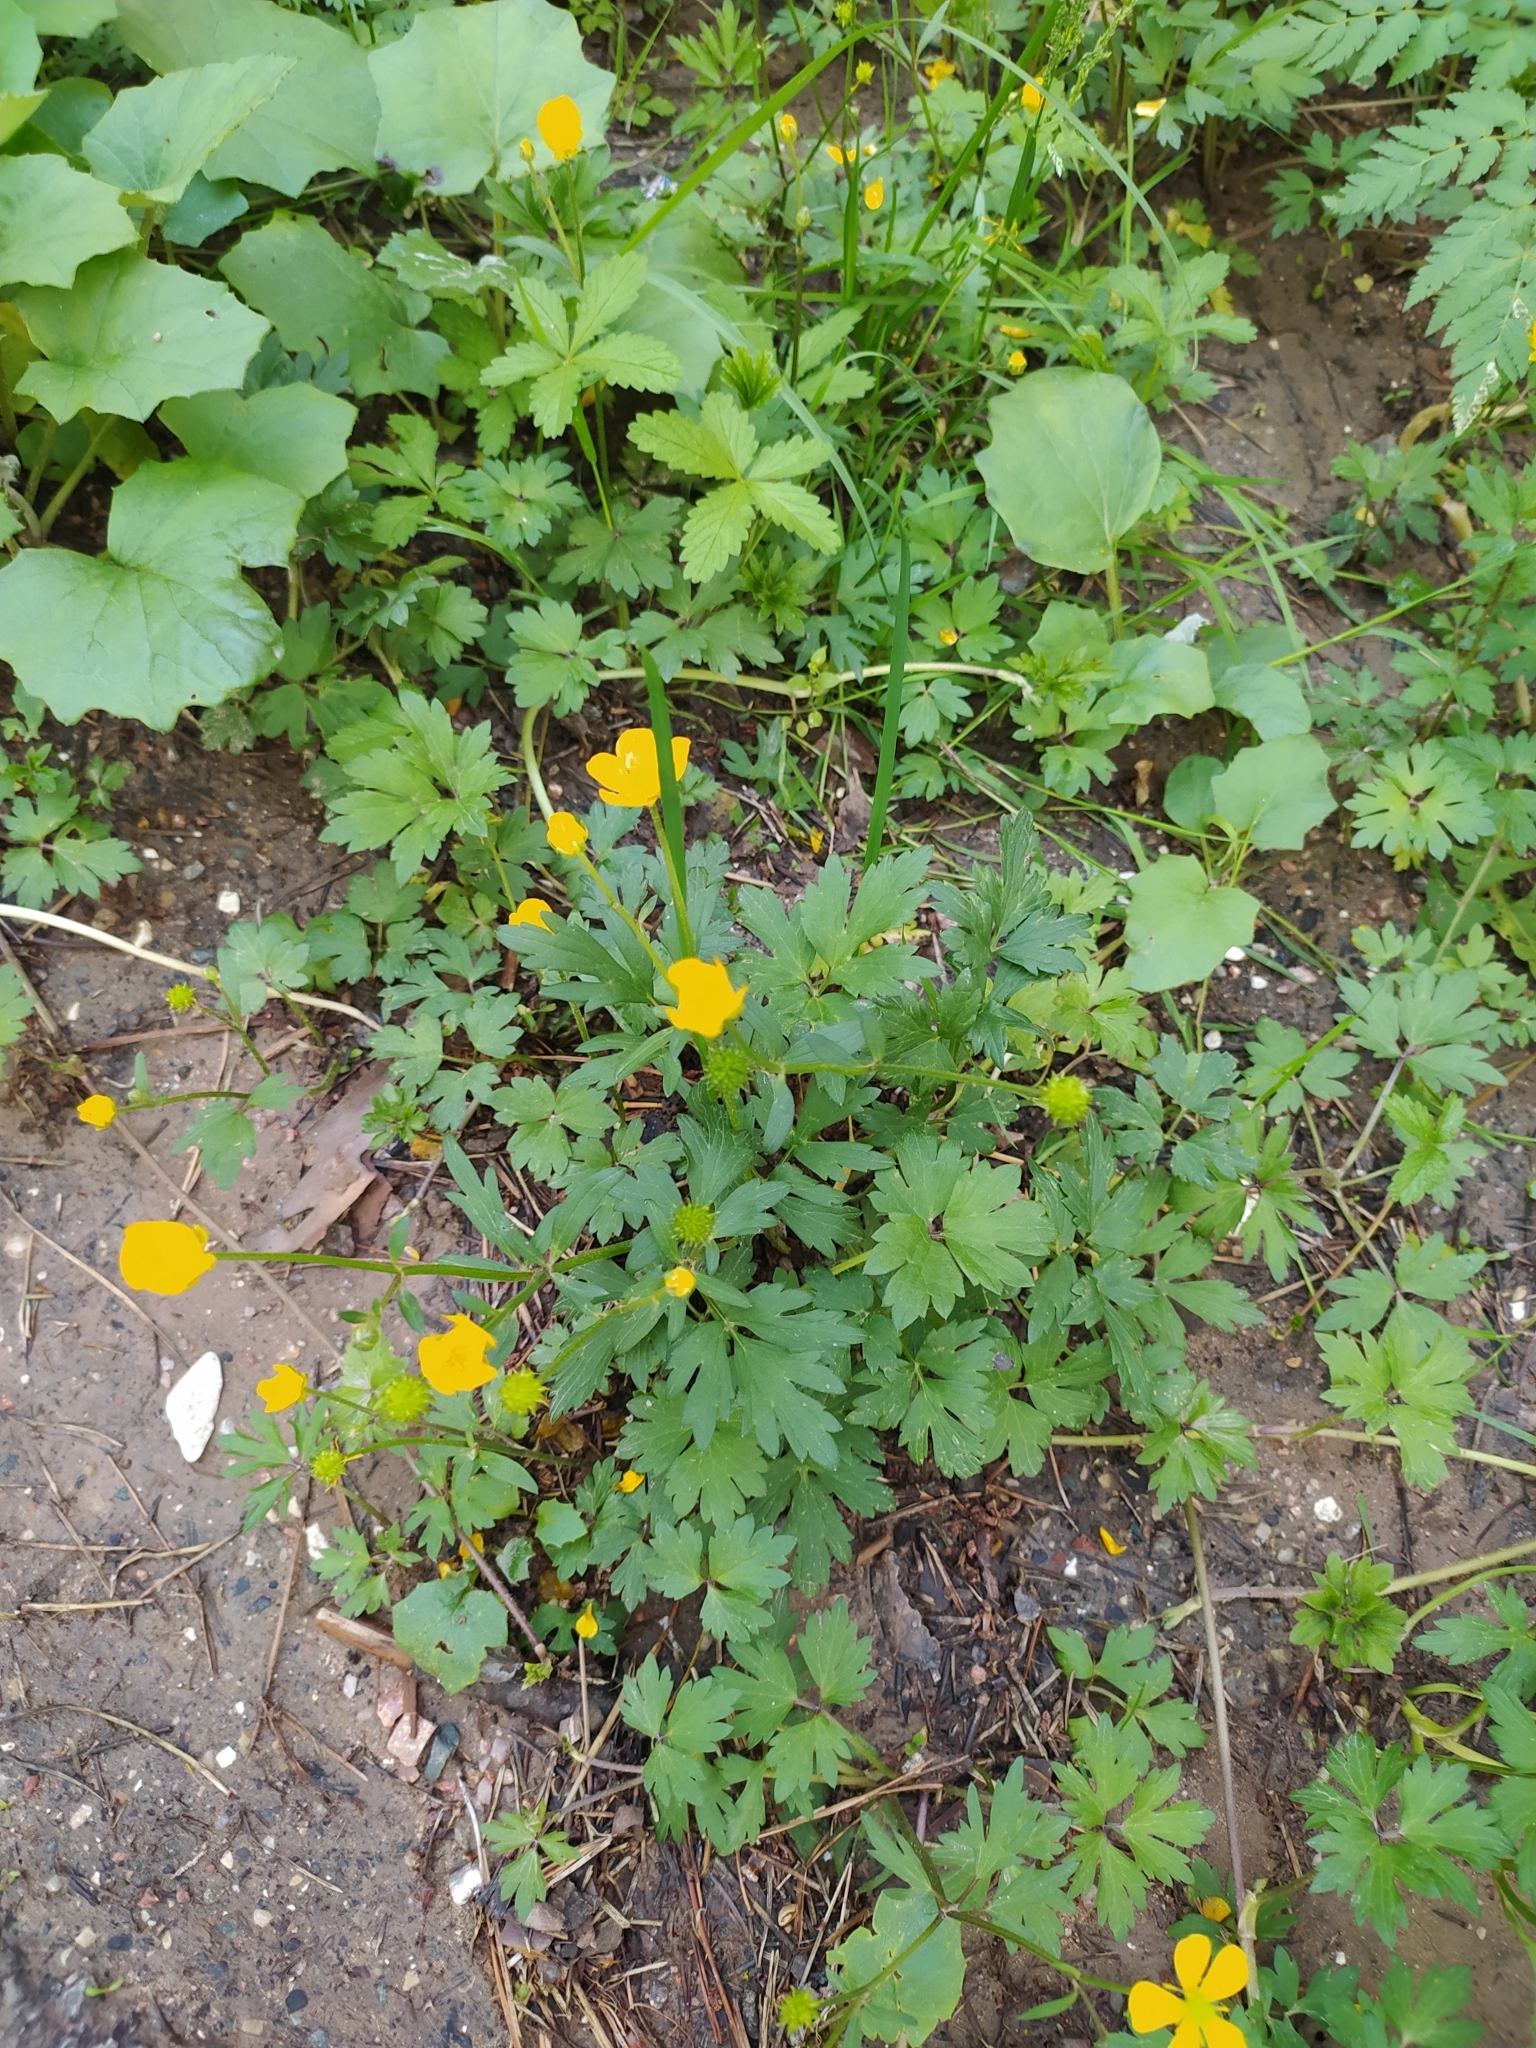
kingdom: Plantae
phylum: Tracheophyta
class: Magnoliopsida
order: Ranunculales
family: Ranunculaceae
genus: Ranunculus
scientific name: Ranunculus repens
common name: Creeping buttercup
